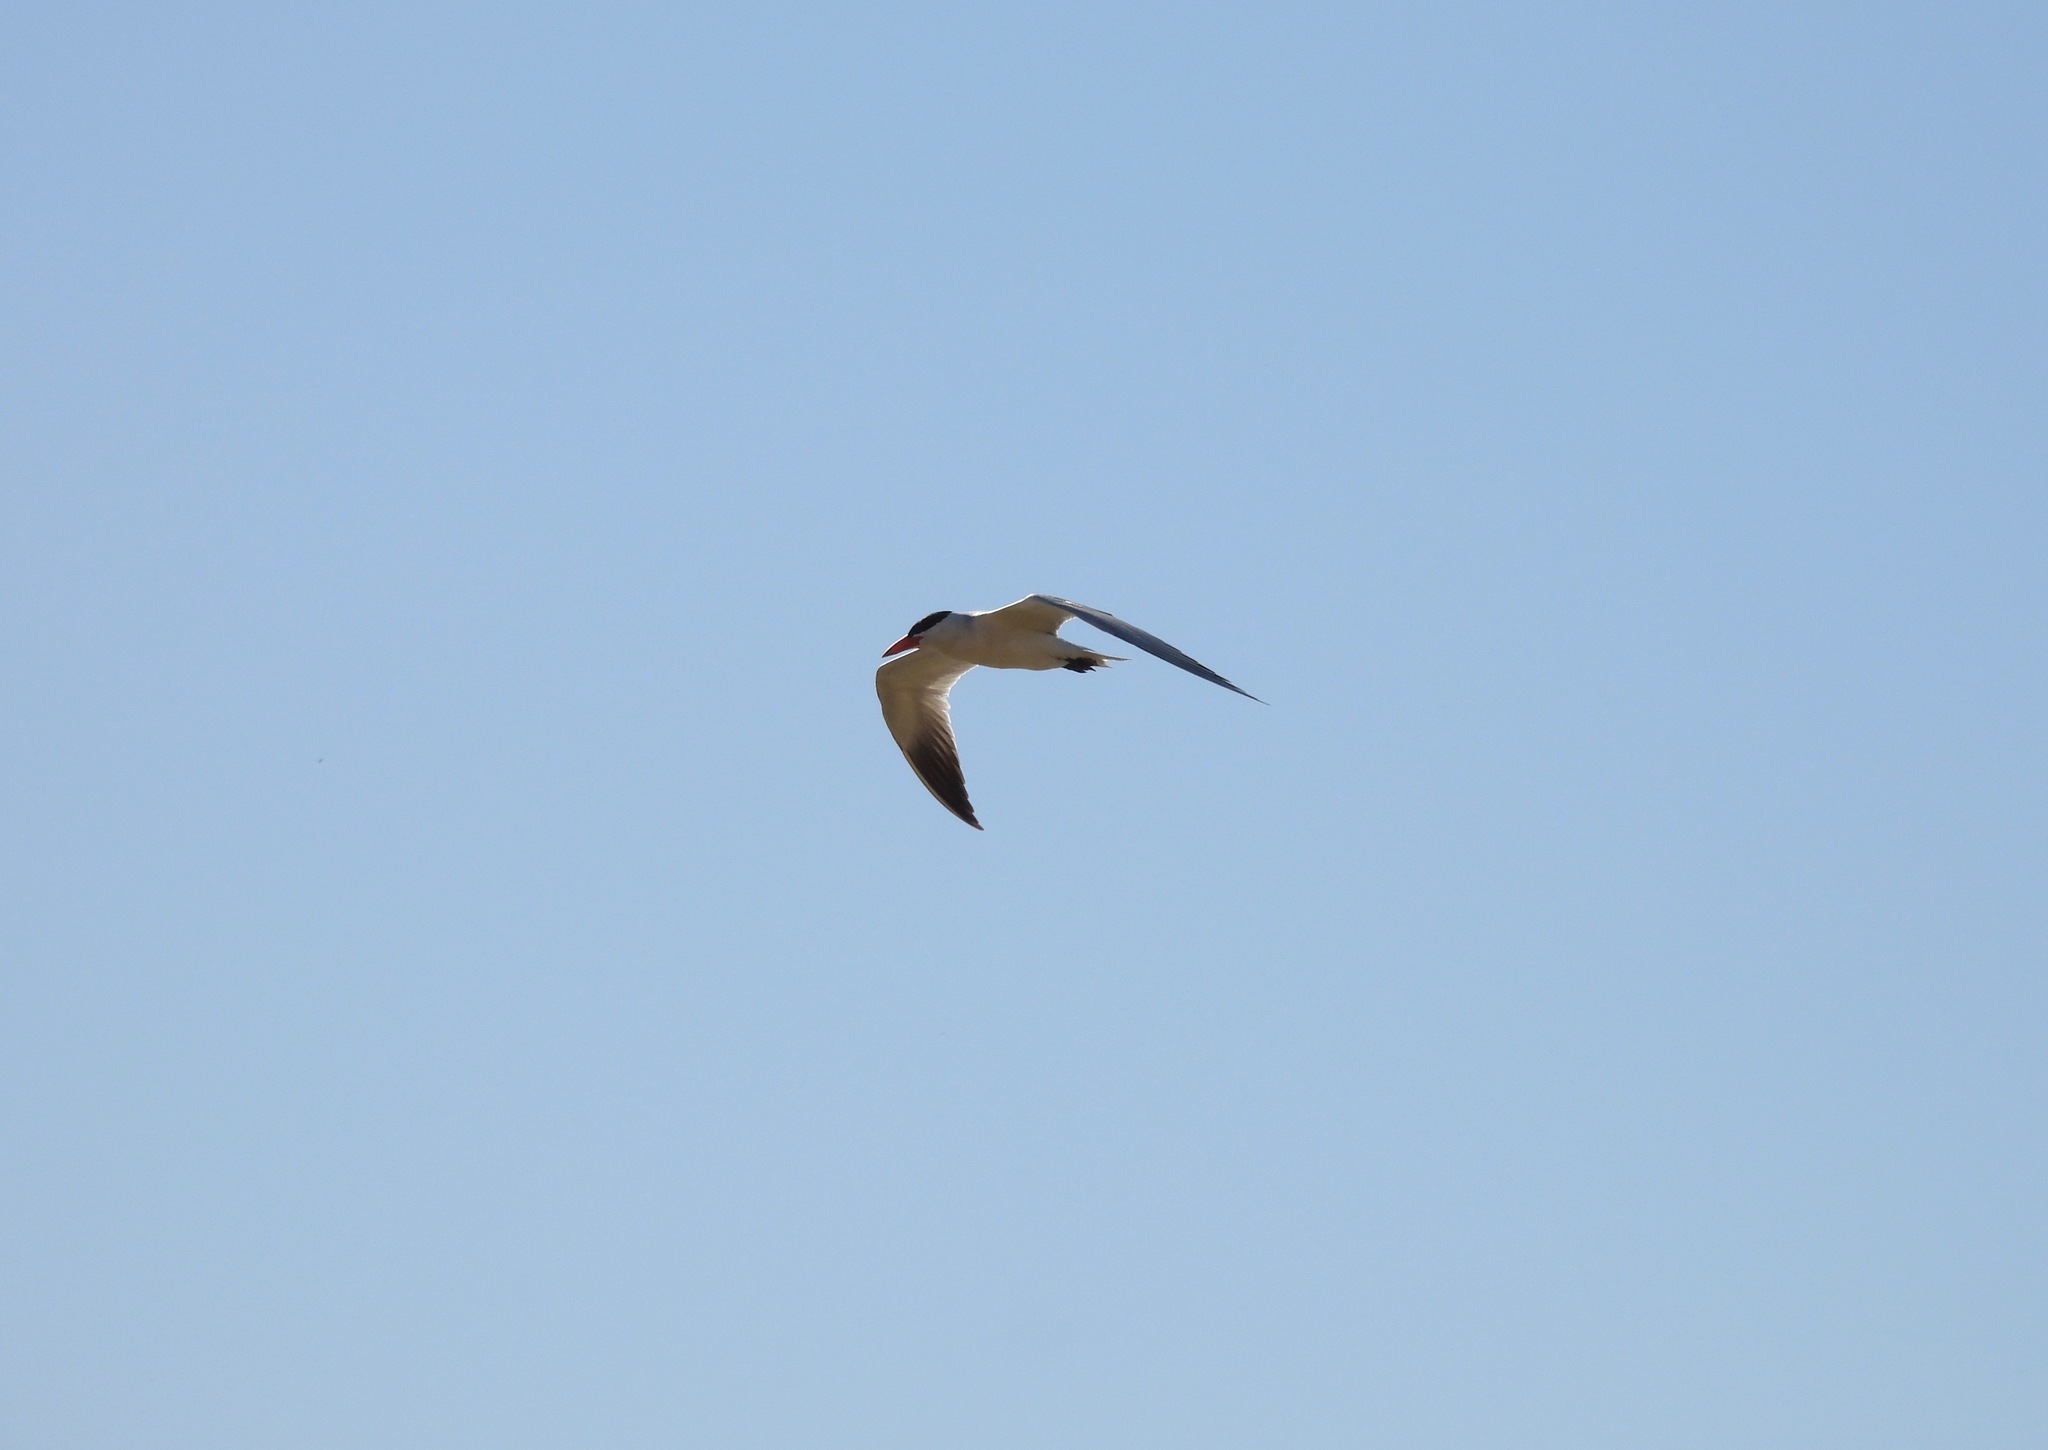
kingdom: Animalia
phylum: Chordata
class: Aves
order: Charadriiformes
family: Laridae
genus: Hydroprogne
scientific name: Hydroprogne caspia
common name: Caspian tern
